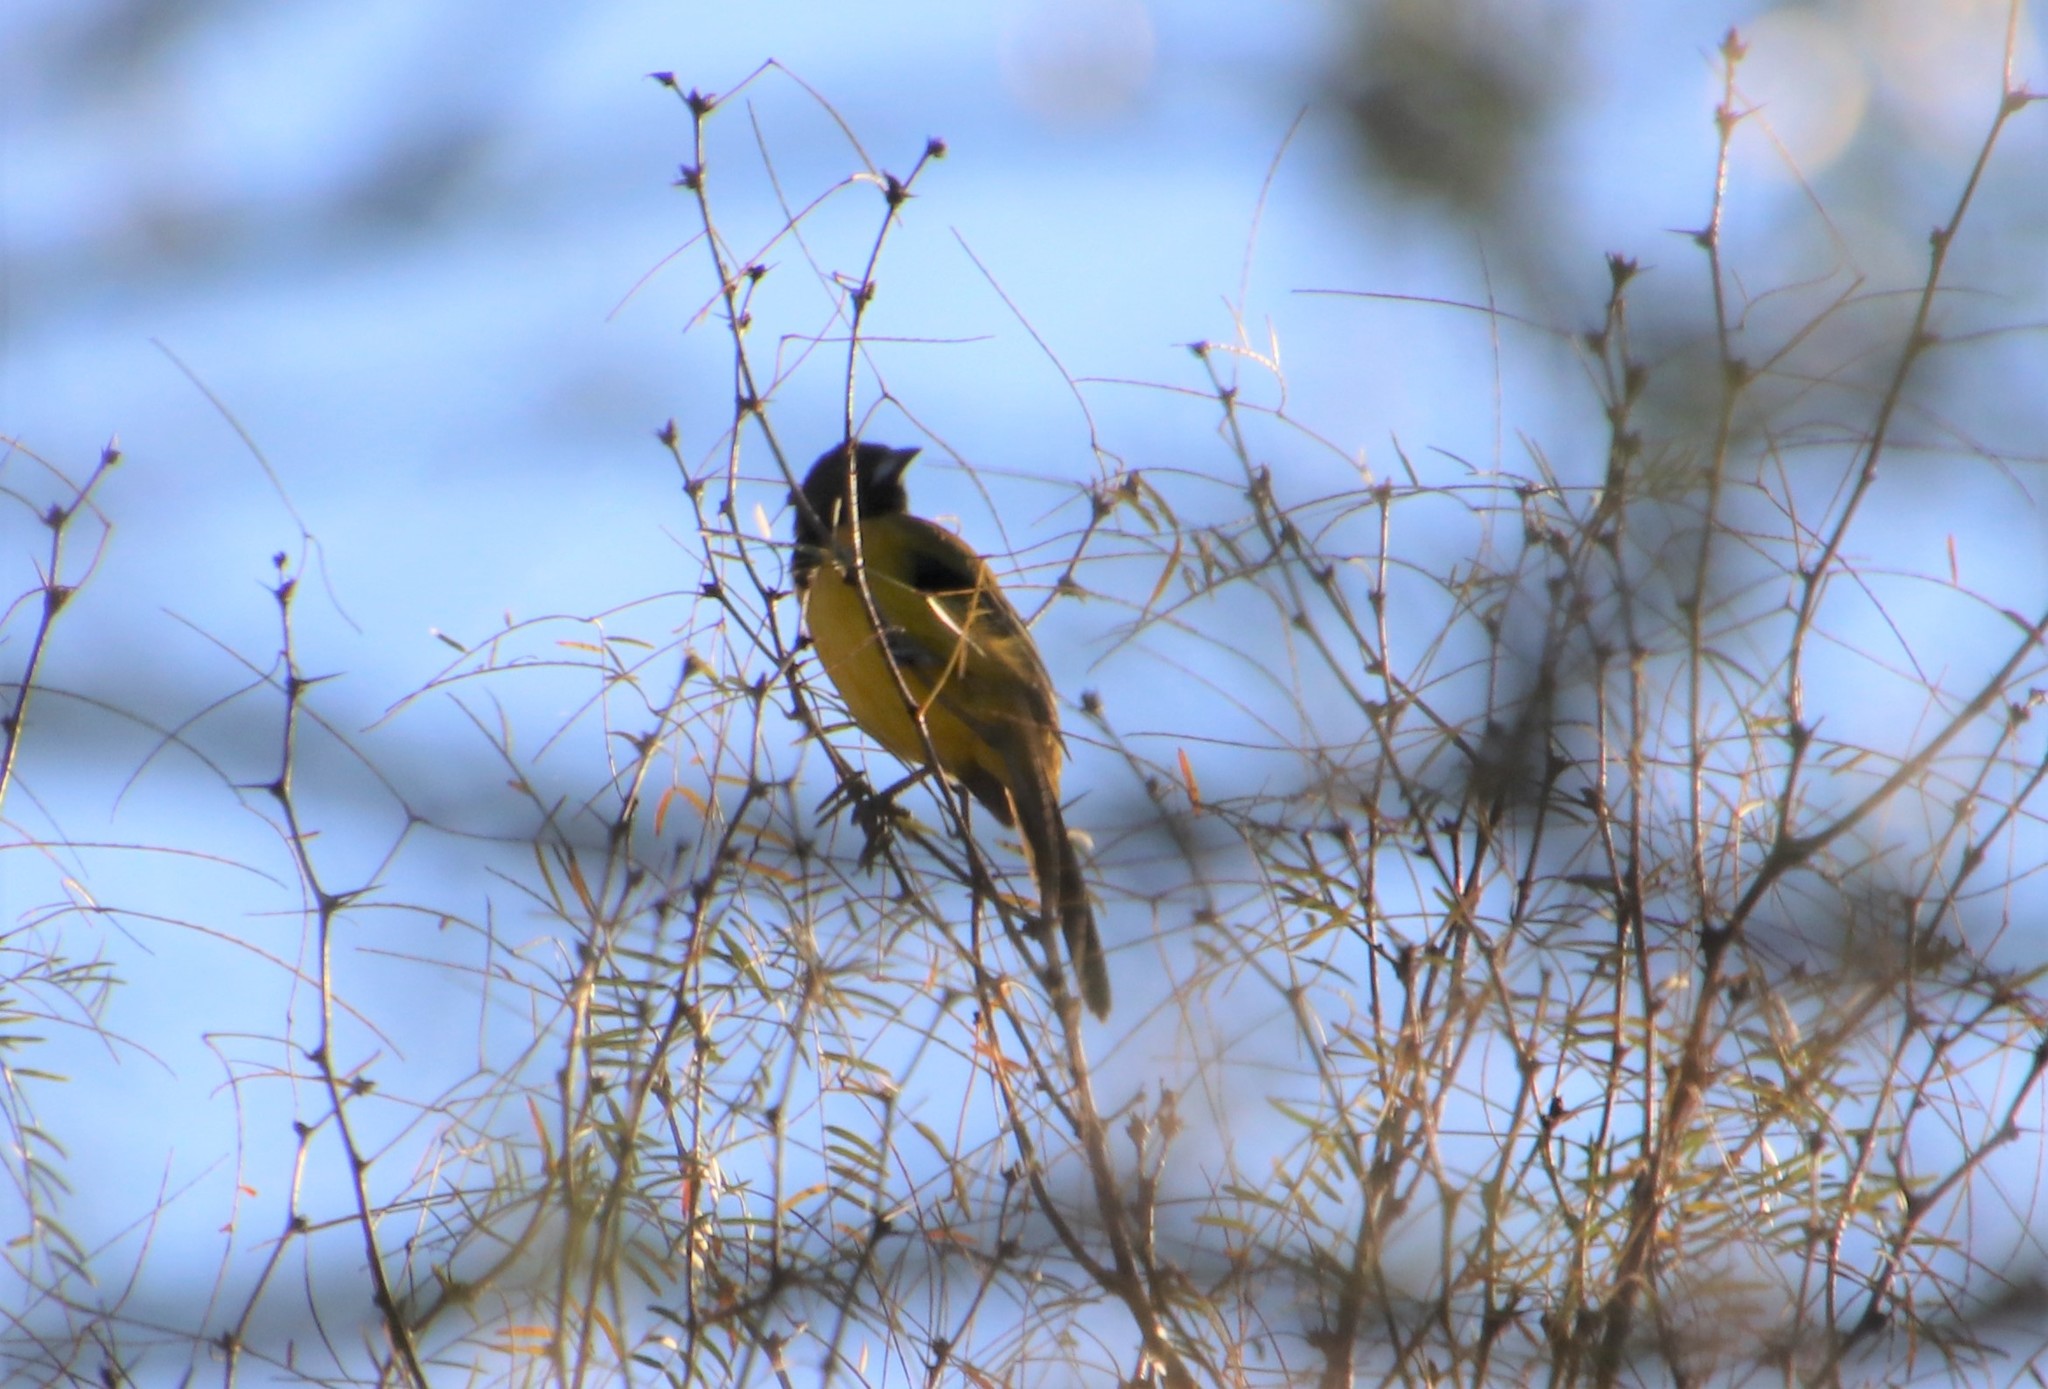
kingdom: Animalia
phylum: Chordata
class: Aves
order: Passeriformes
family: Icteridae
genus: Icterus
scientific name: Icterus graduacauda
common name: Audubon's oriole
